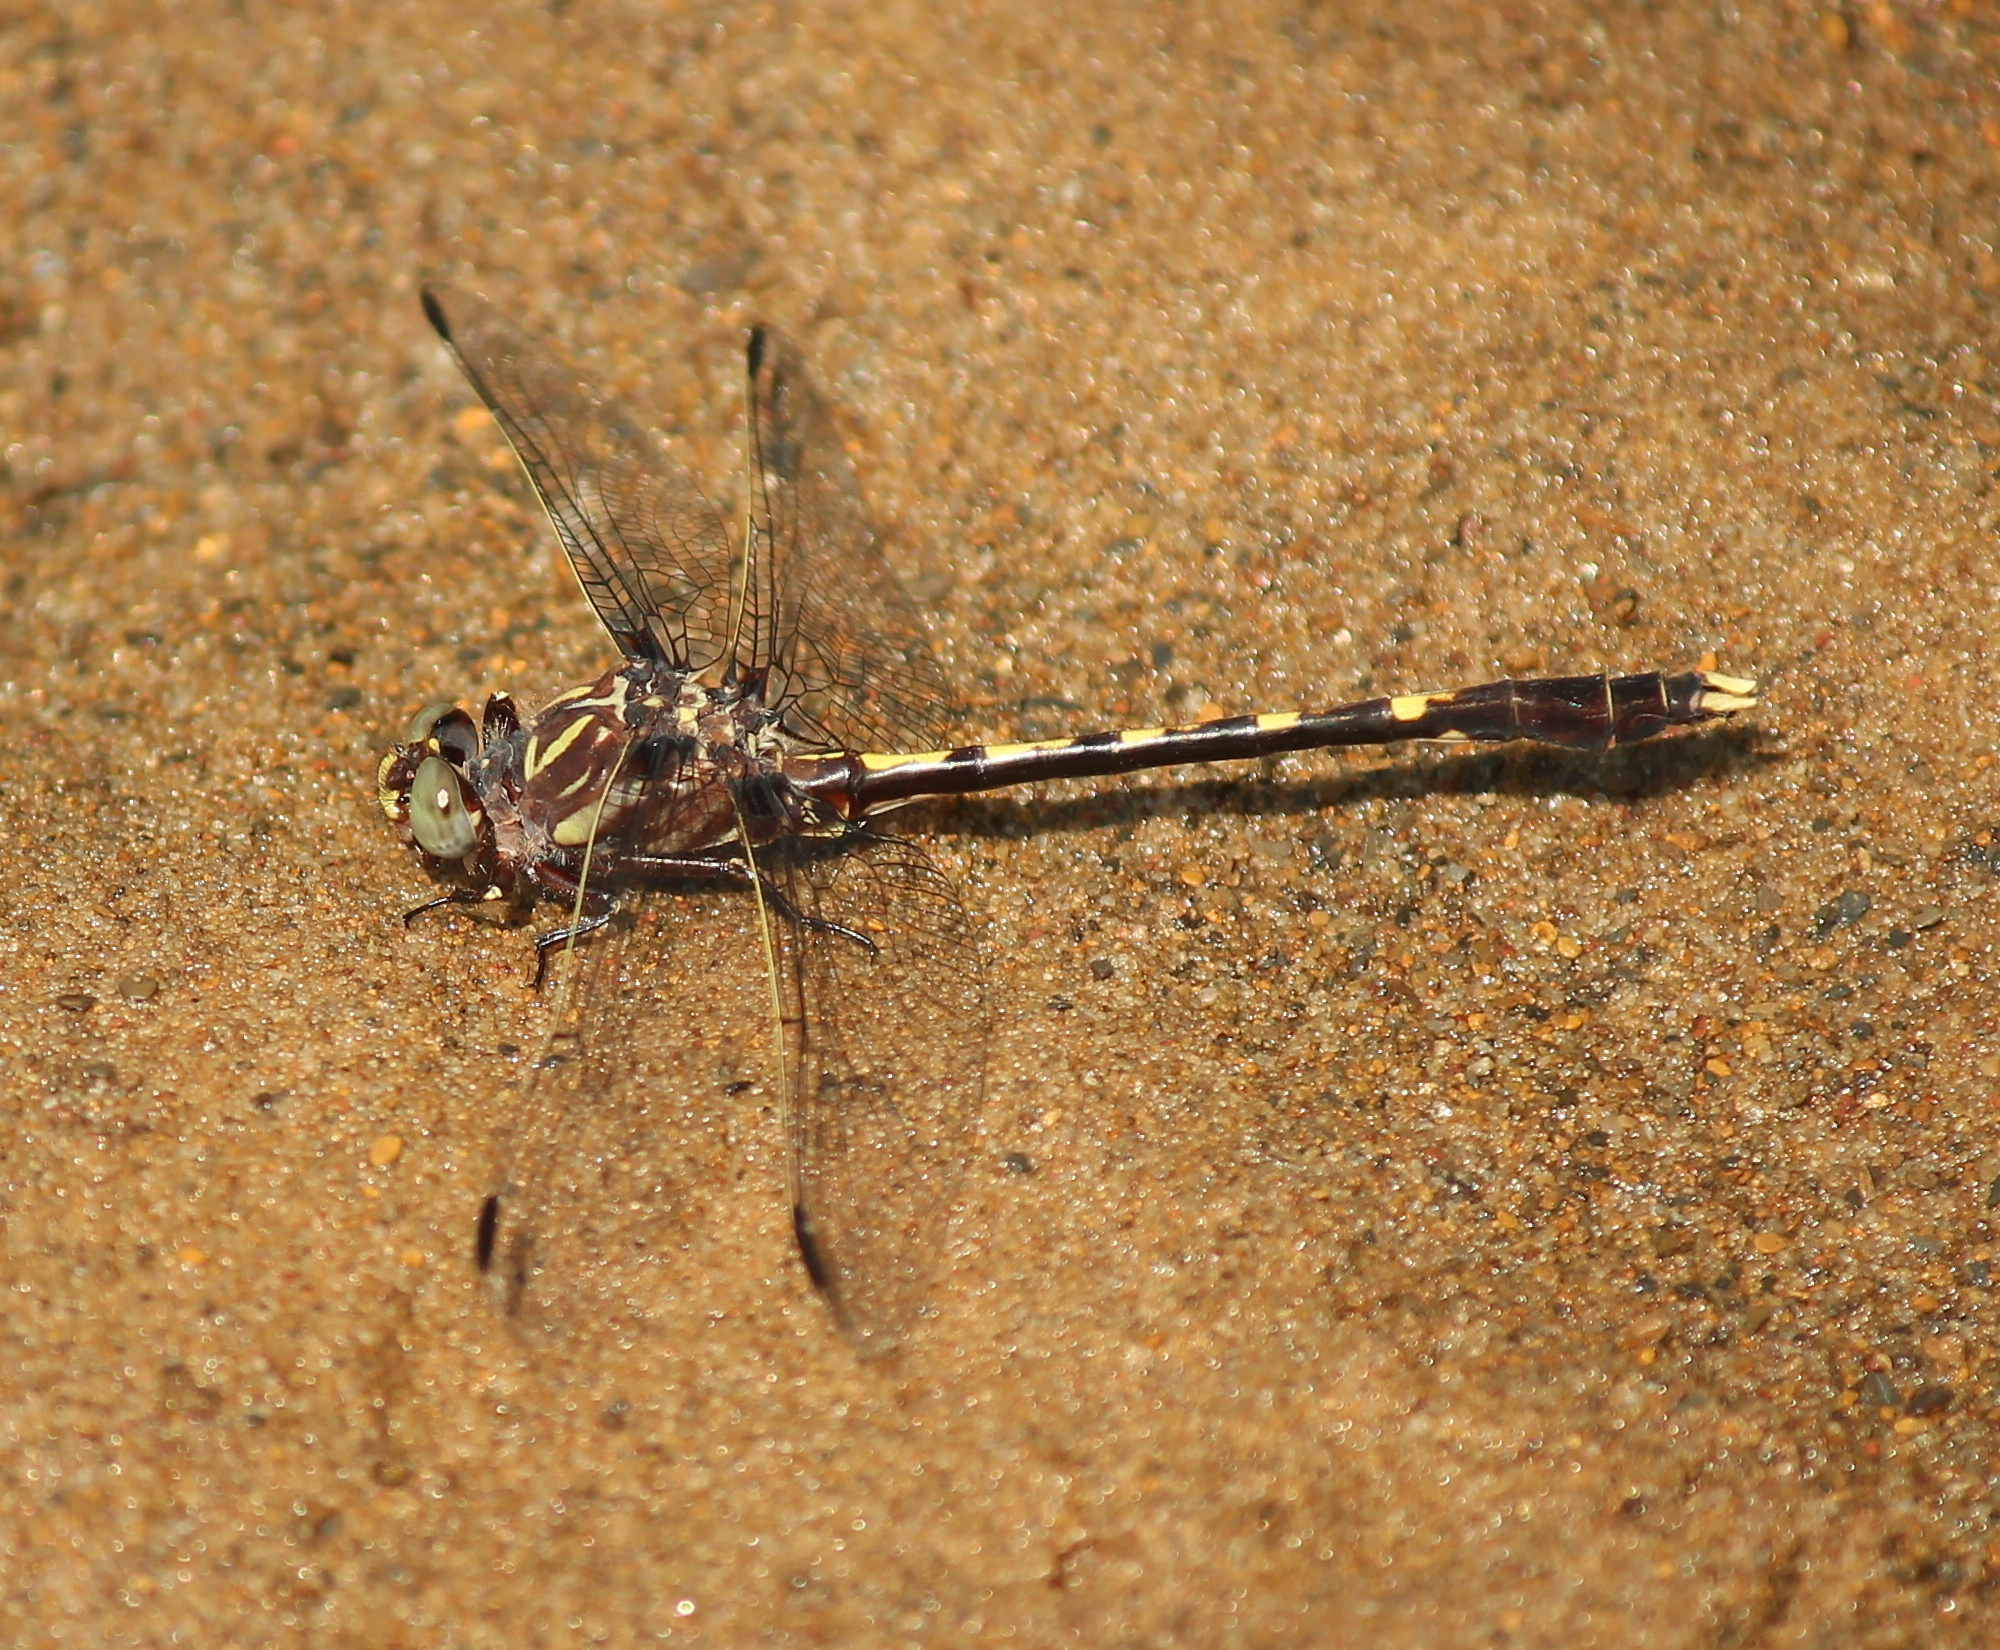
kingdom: Animalia
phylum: Arthropoda
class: Insecta
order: Odonata
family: Gomphidae
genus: Progomphus
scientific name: Progomphus obscurus
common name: Common sanddragon
